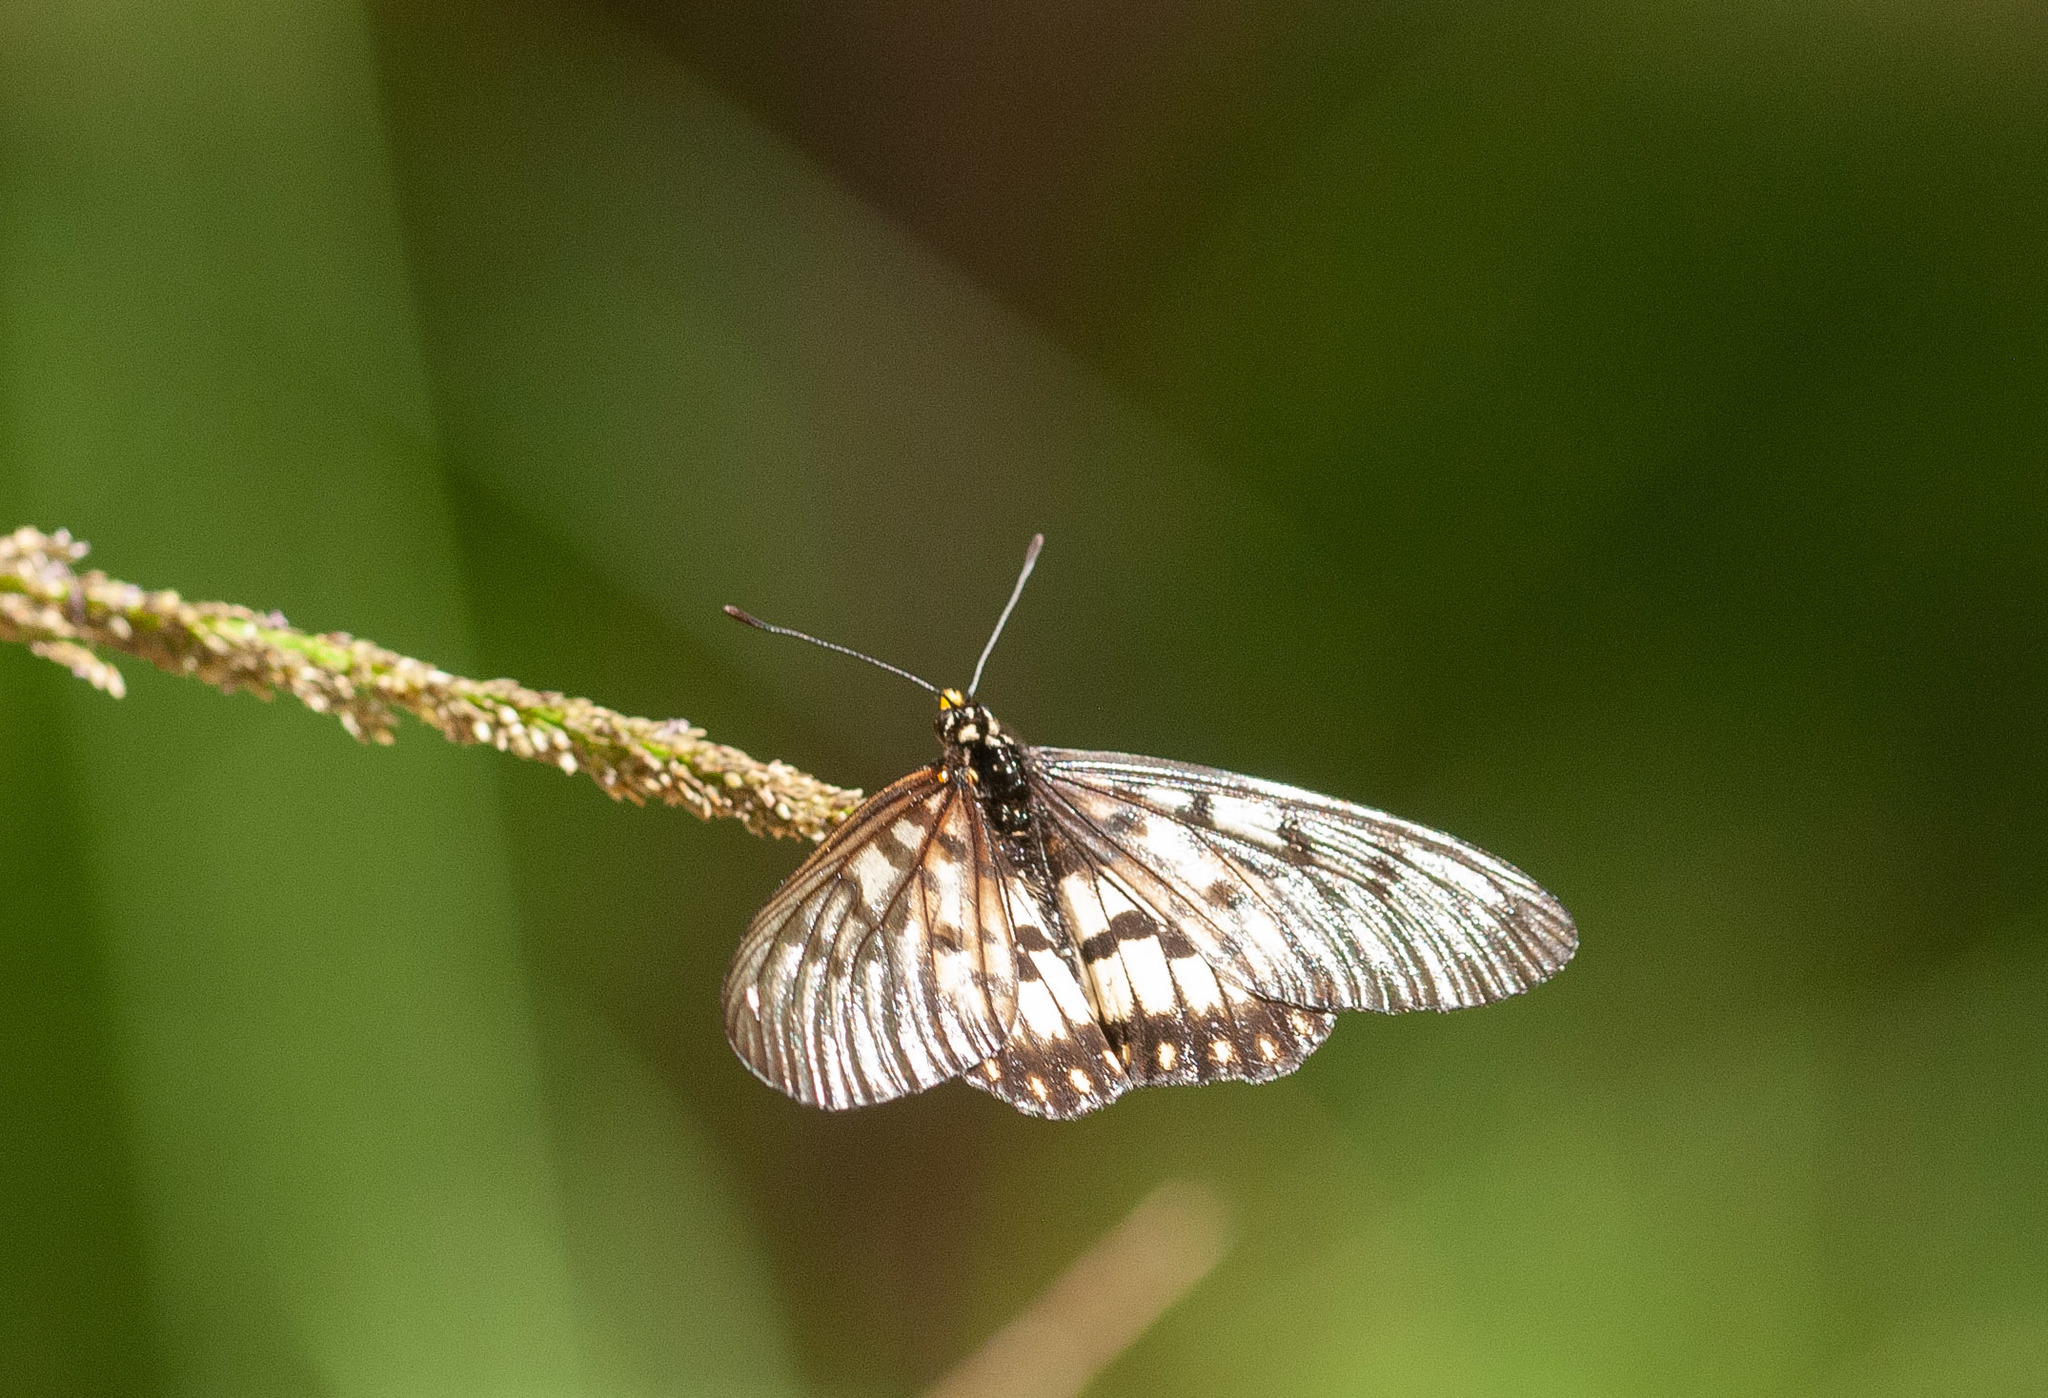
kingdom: Animalia
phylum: Arthropoda
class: Insecta
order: Lepidoptera
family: Nymphalidae
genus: Acraea
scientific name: Acraea andromacha
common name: Glasswing
